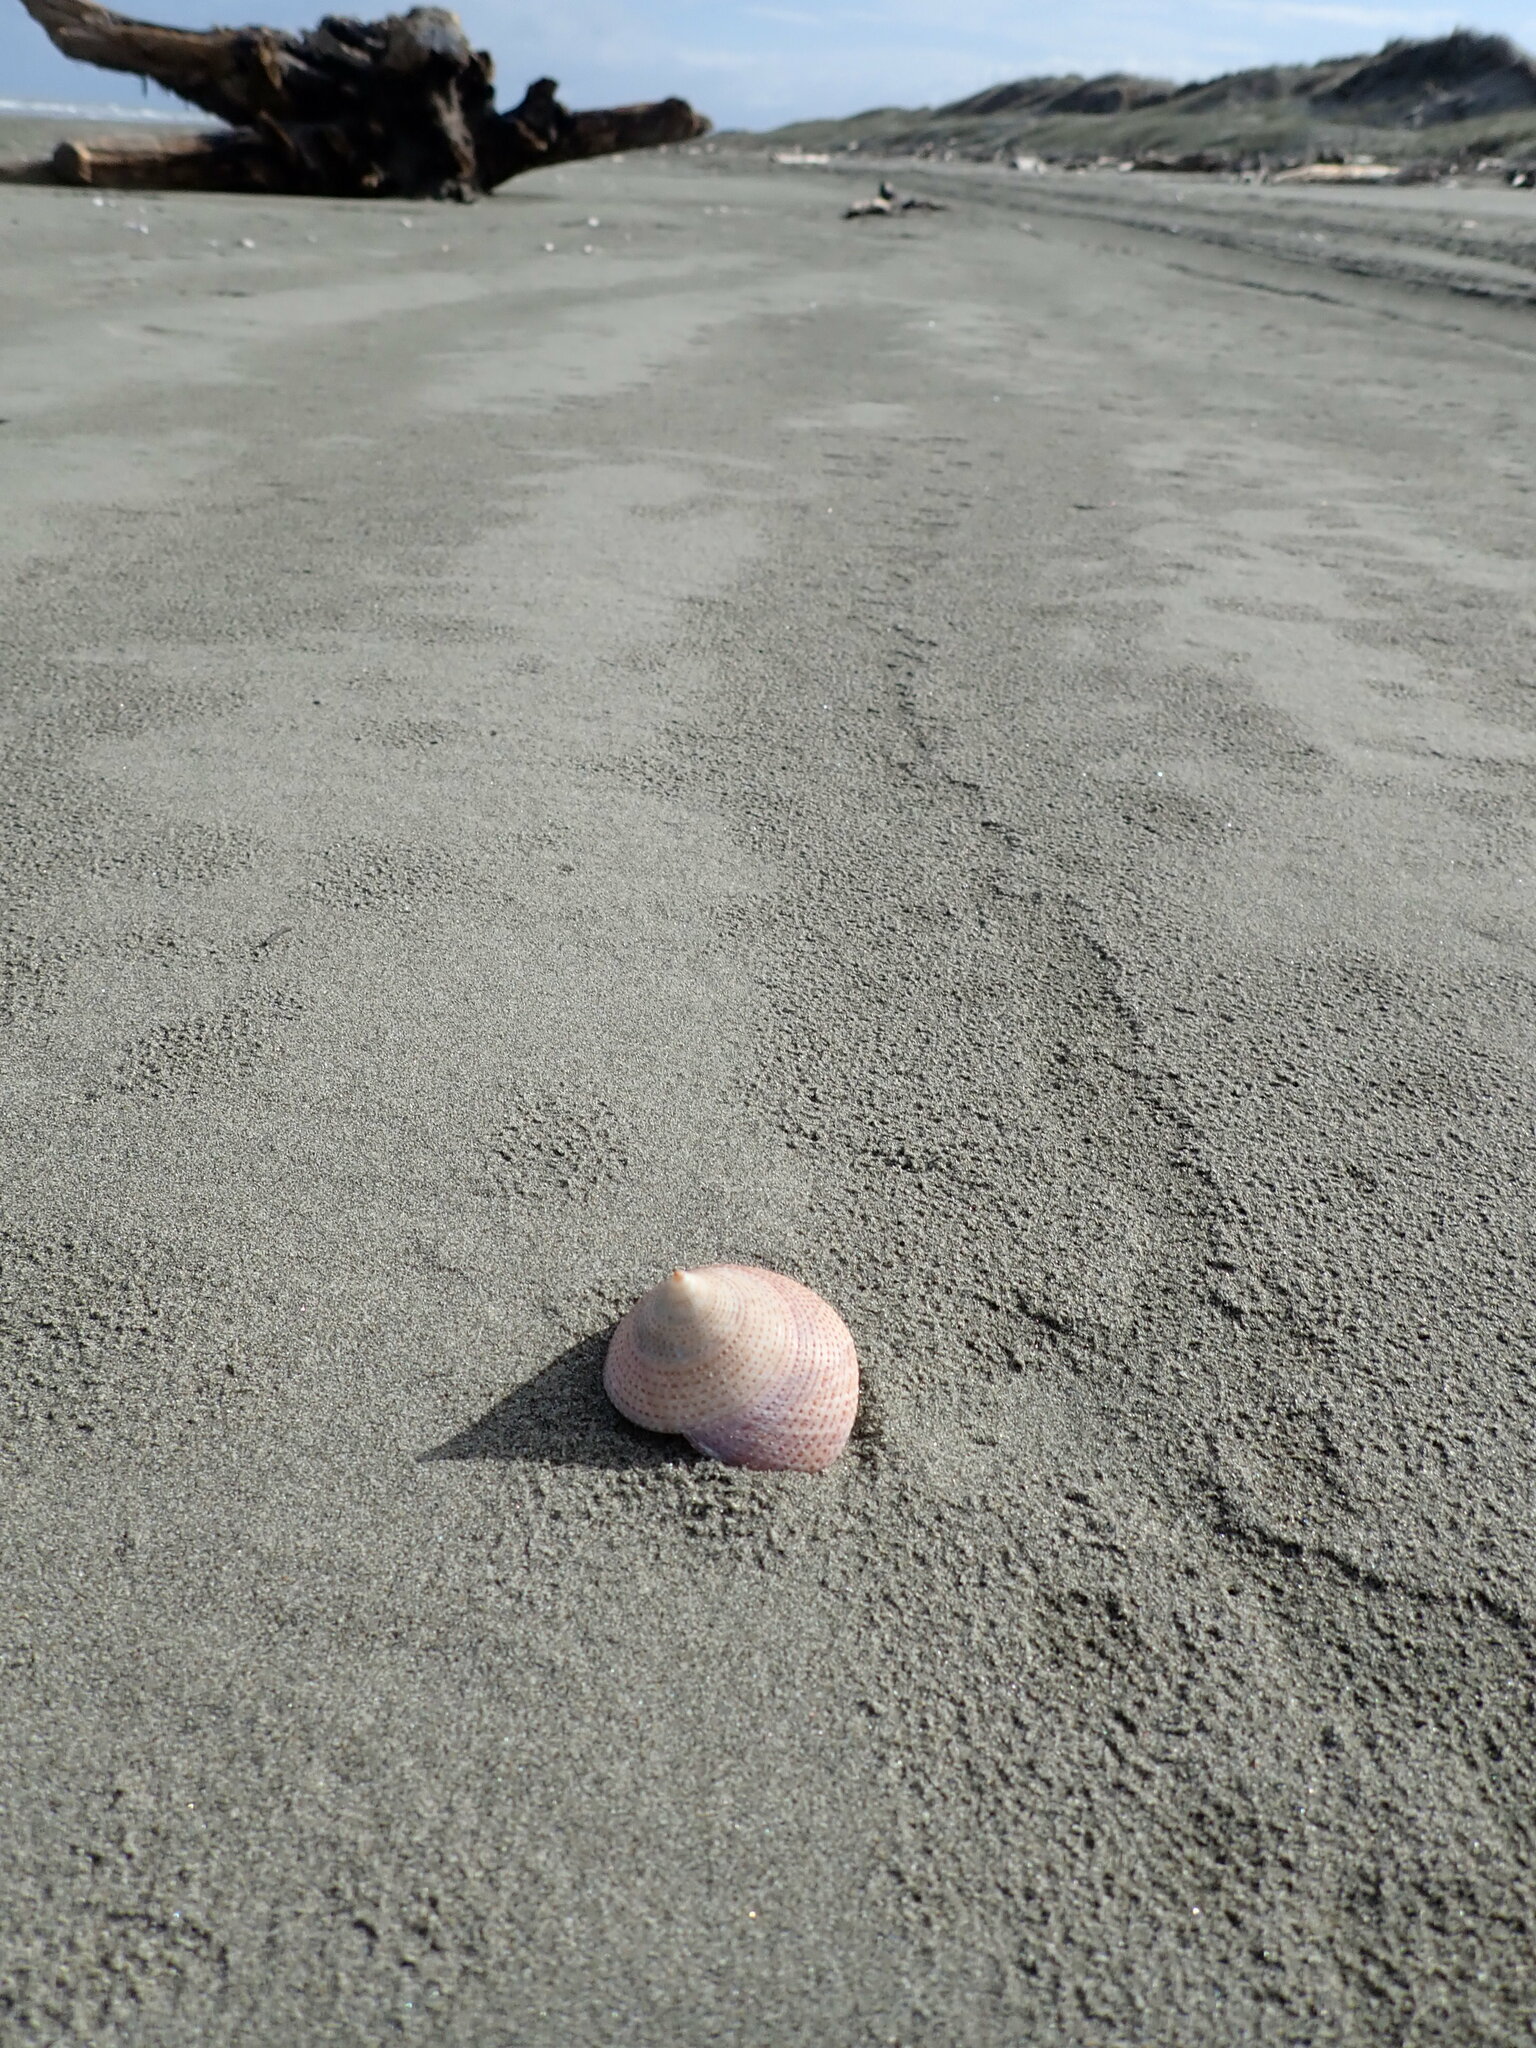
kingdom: Animalia
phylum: Mollusca
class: Gastropoda
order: Trochida
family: Calliostomatidae
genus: Maurea
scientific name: Maurea selecta
